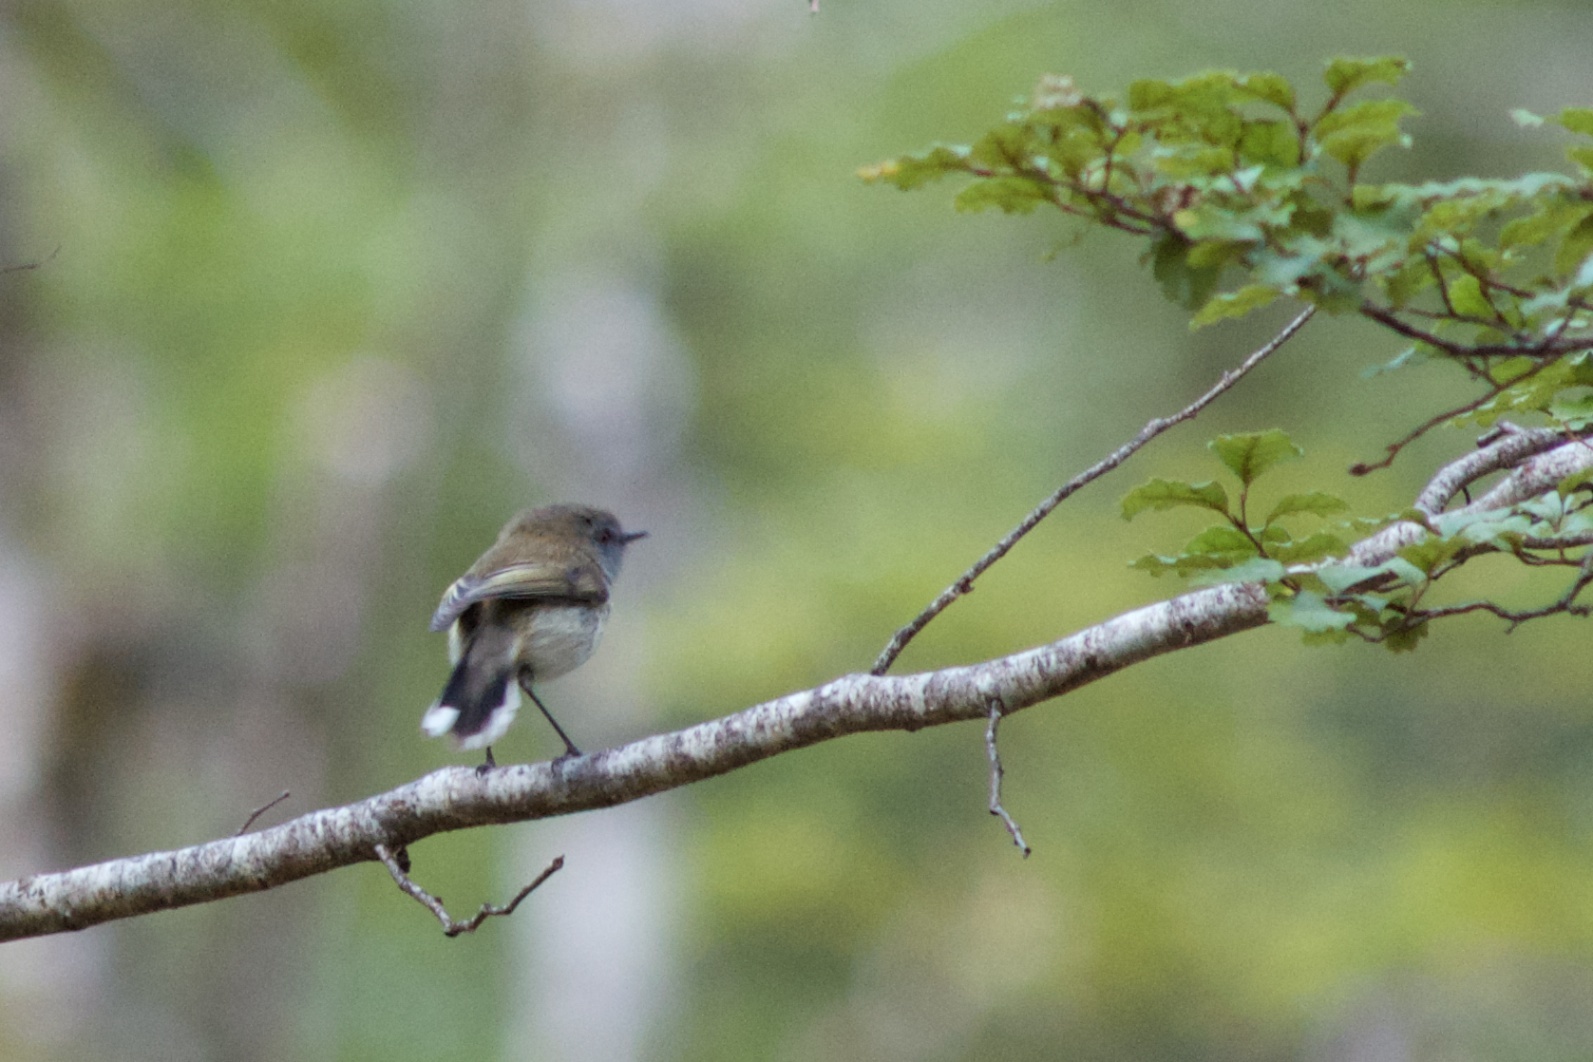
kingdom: Animalia
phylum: Chordata
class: Aves
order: Passeriformes
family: Acanthizidae
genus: Gerygone
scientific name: Gerygone igata
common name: Grey gerygone
